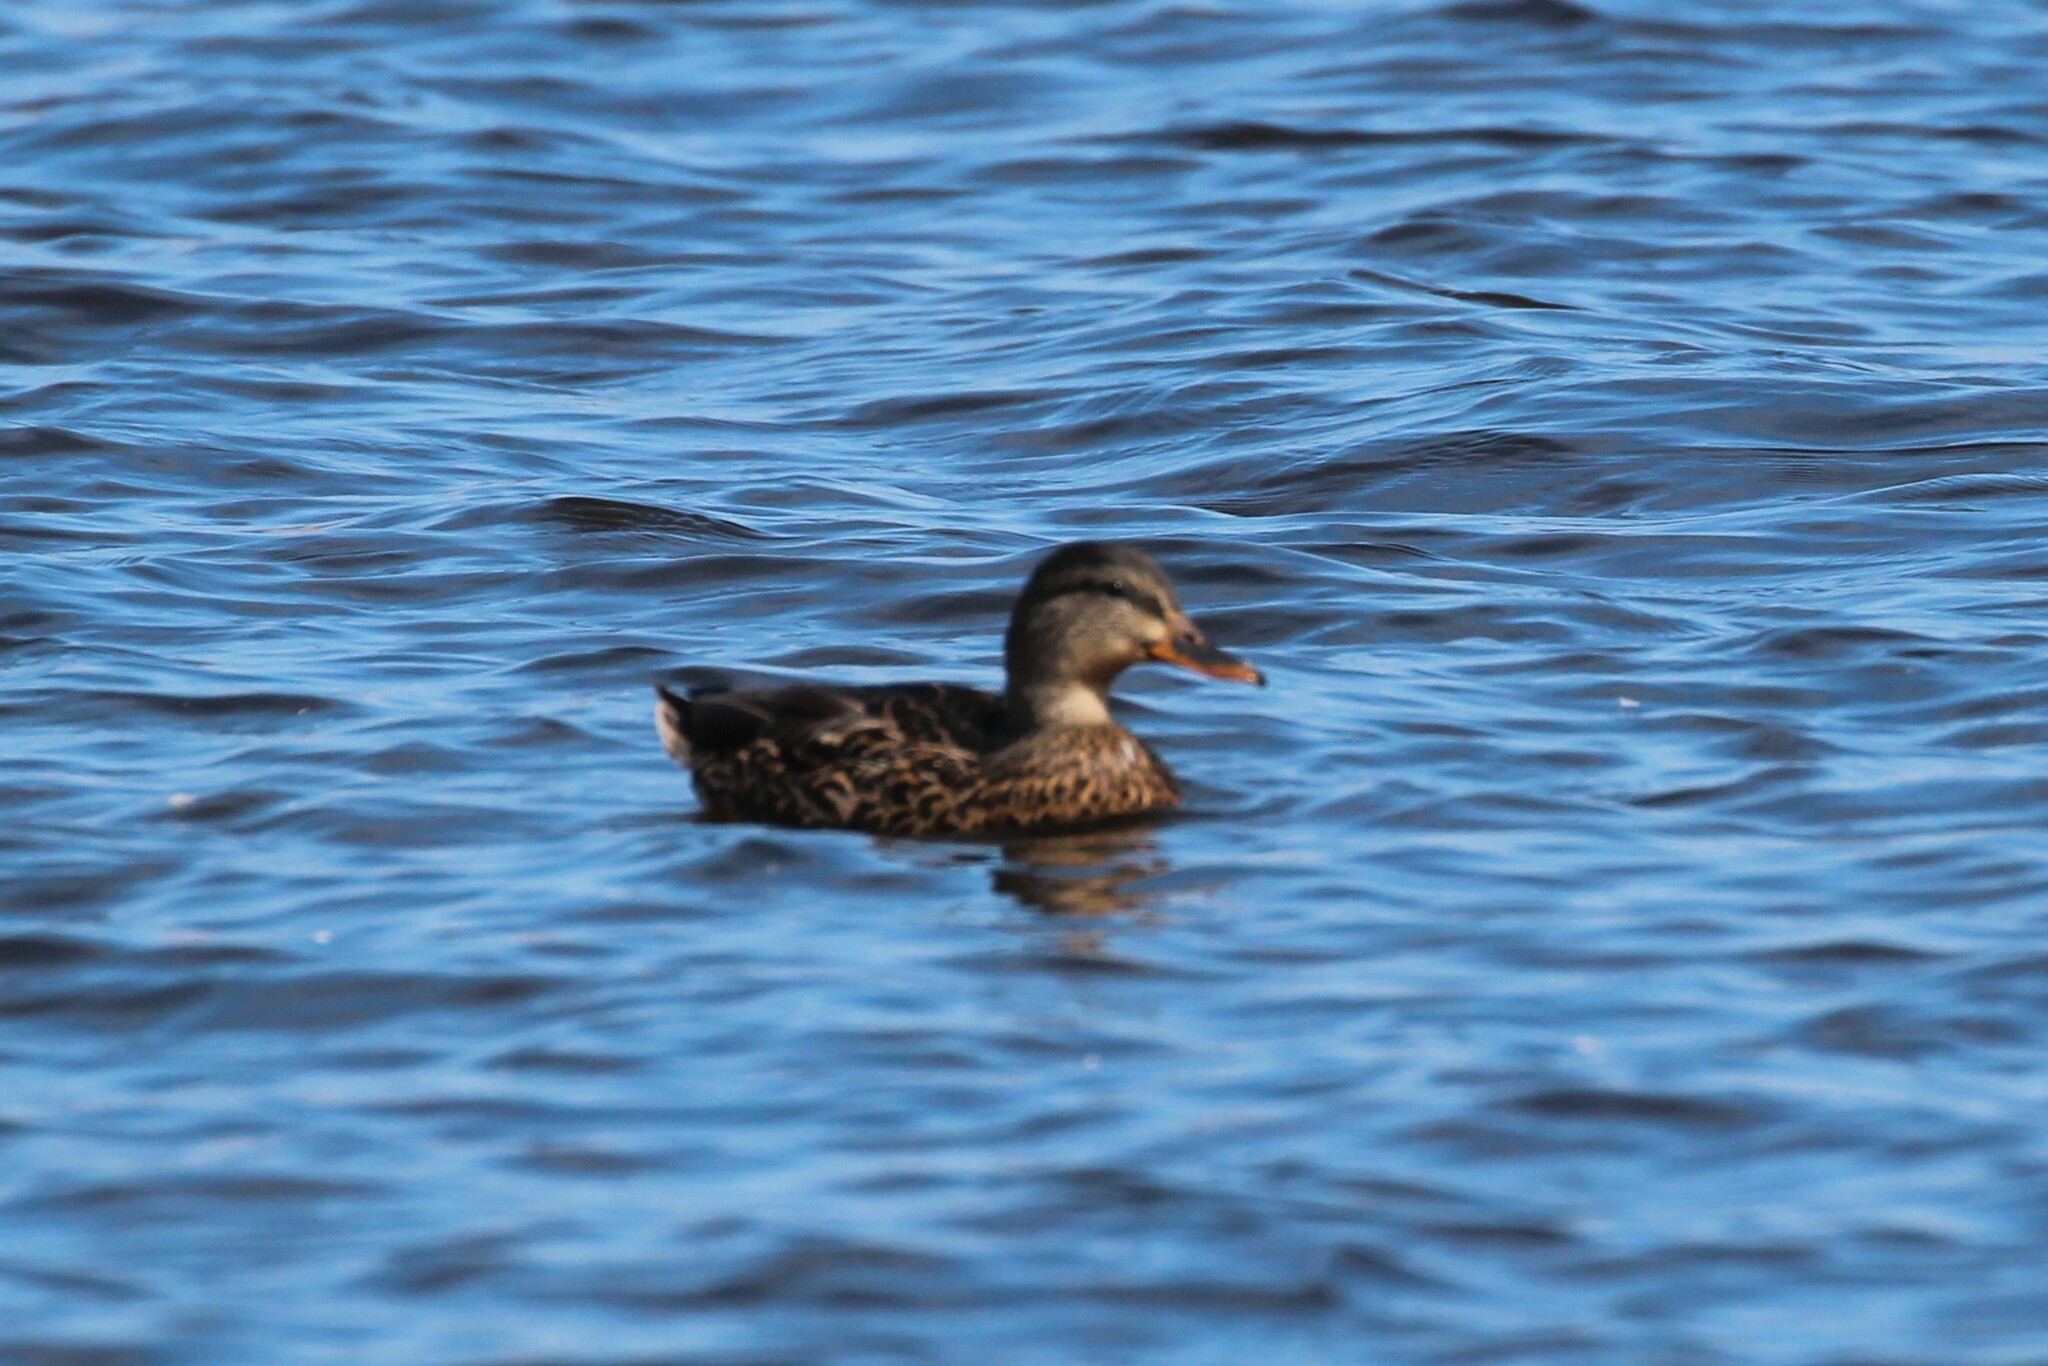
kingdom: Animalia
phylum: Chordata
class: Aves
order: Anseriformes
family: Anatidae
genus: Anas
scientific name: Anas platyrhynchos
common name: Mallard
